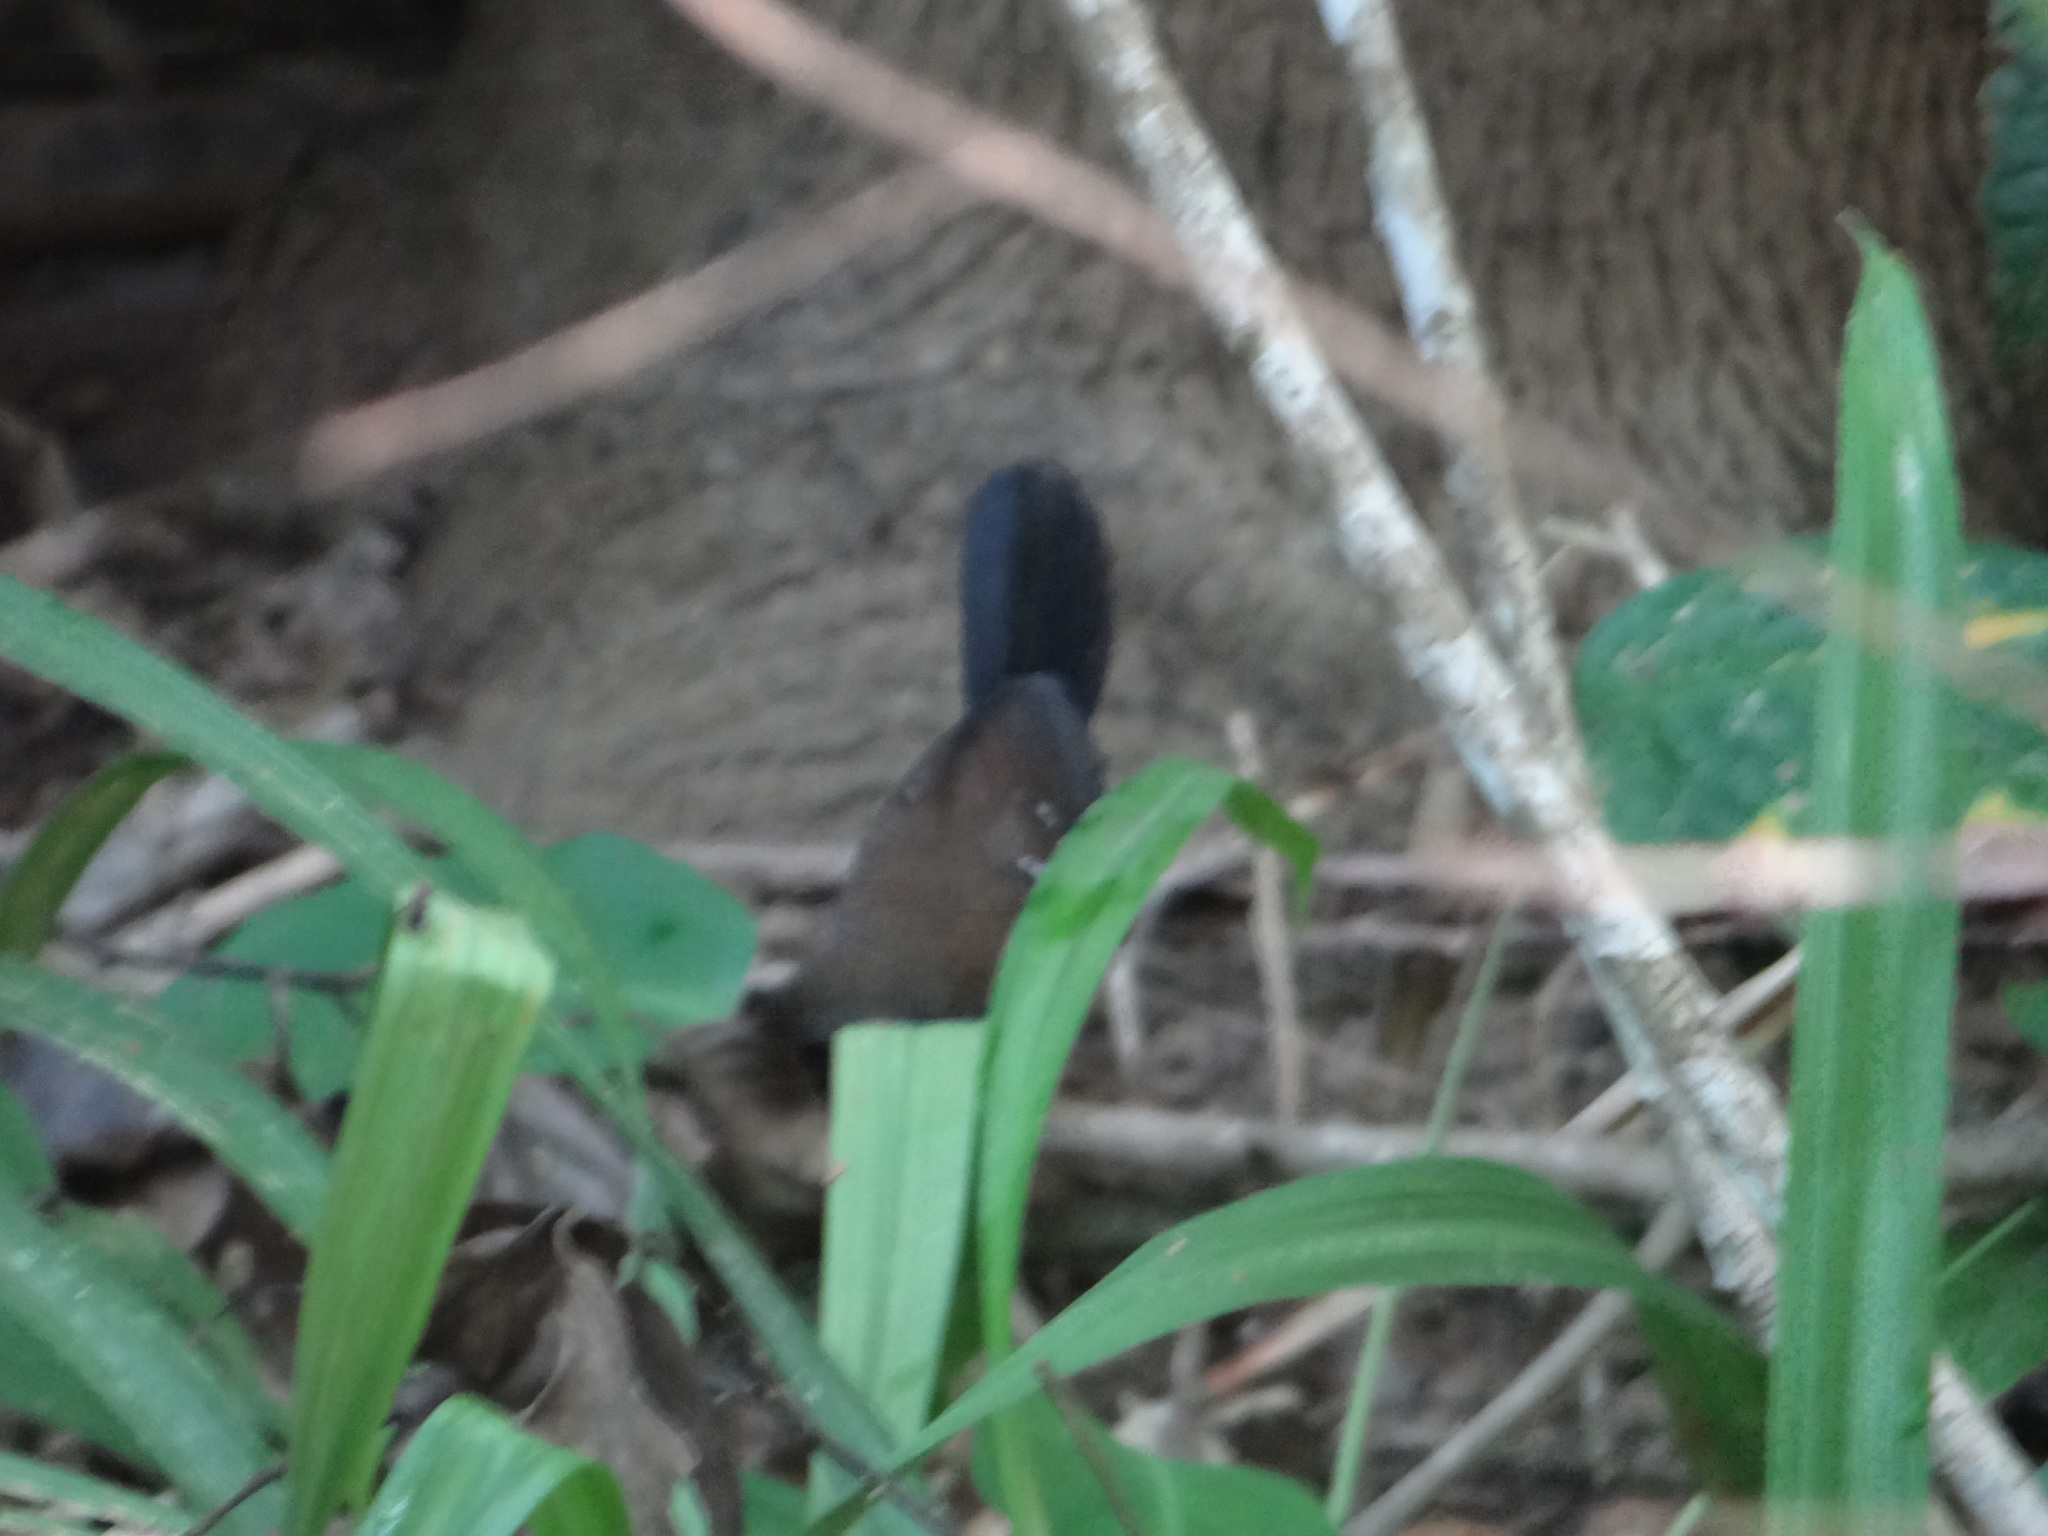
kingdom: Animalia
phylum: Chordata
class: Aves
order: Passeriformes
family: Thamnophilidae
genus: Myrmeciza
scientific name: Myrmeciza atrothorax
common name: Black-throated antbird
